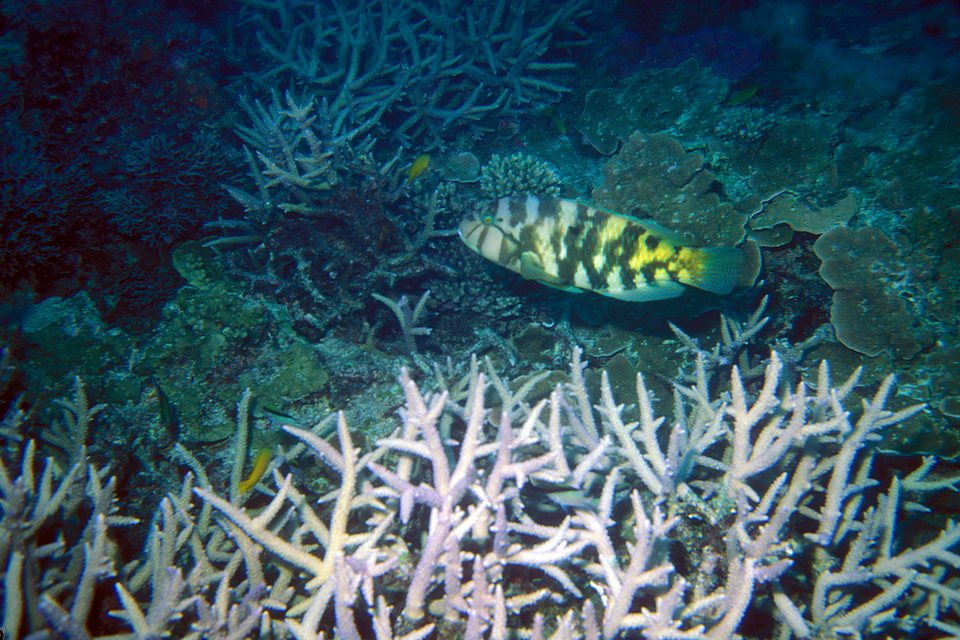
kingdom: Animalia
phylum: Chordata
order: Perciformes
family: Labridae
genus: Choerodon
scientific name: Choerodon graphicus
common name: Graphic tuskfish
